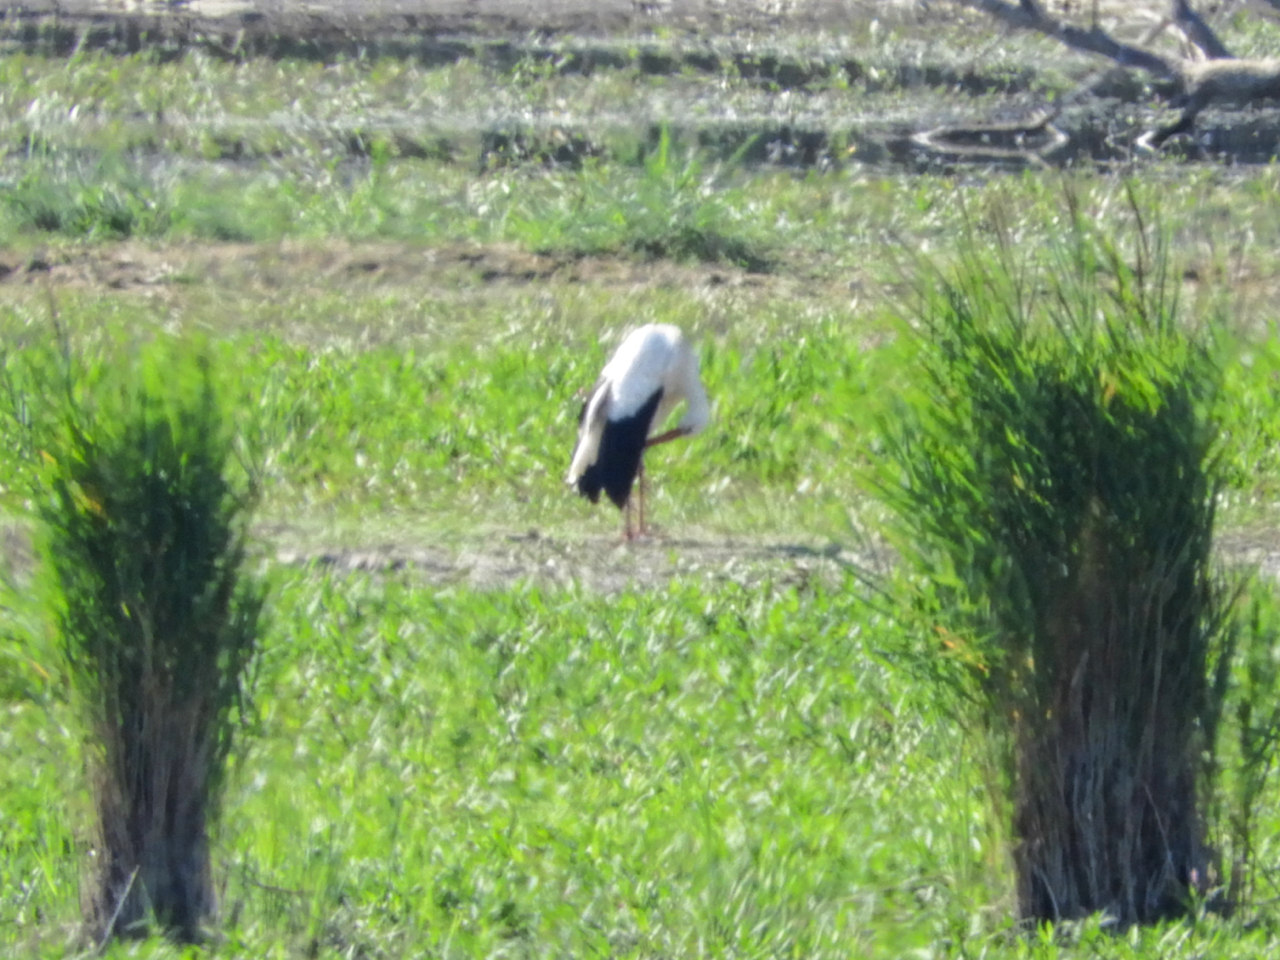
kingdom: Animalia
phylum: Chordata
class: Aves
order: Ciconiiformes
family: Ciconiidae
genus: Ciconia
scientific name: Ciconia ciconia
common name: White stork
